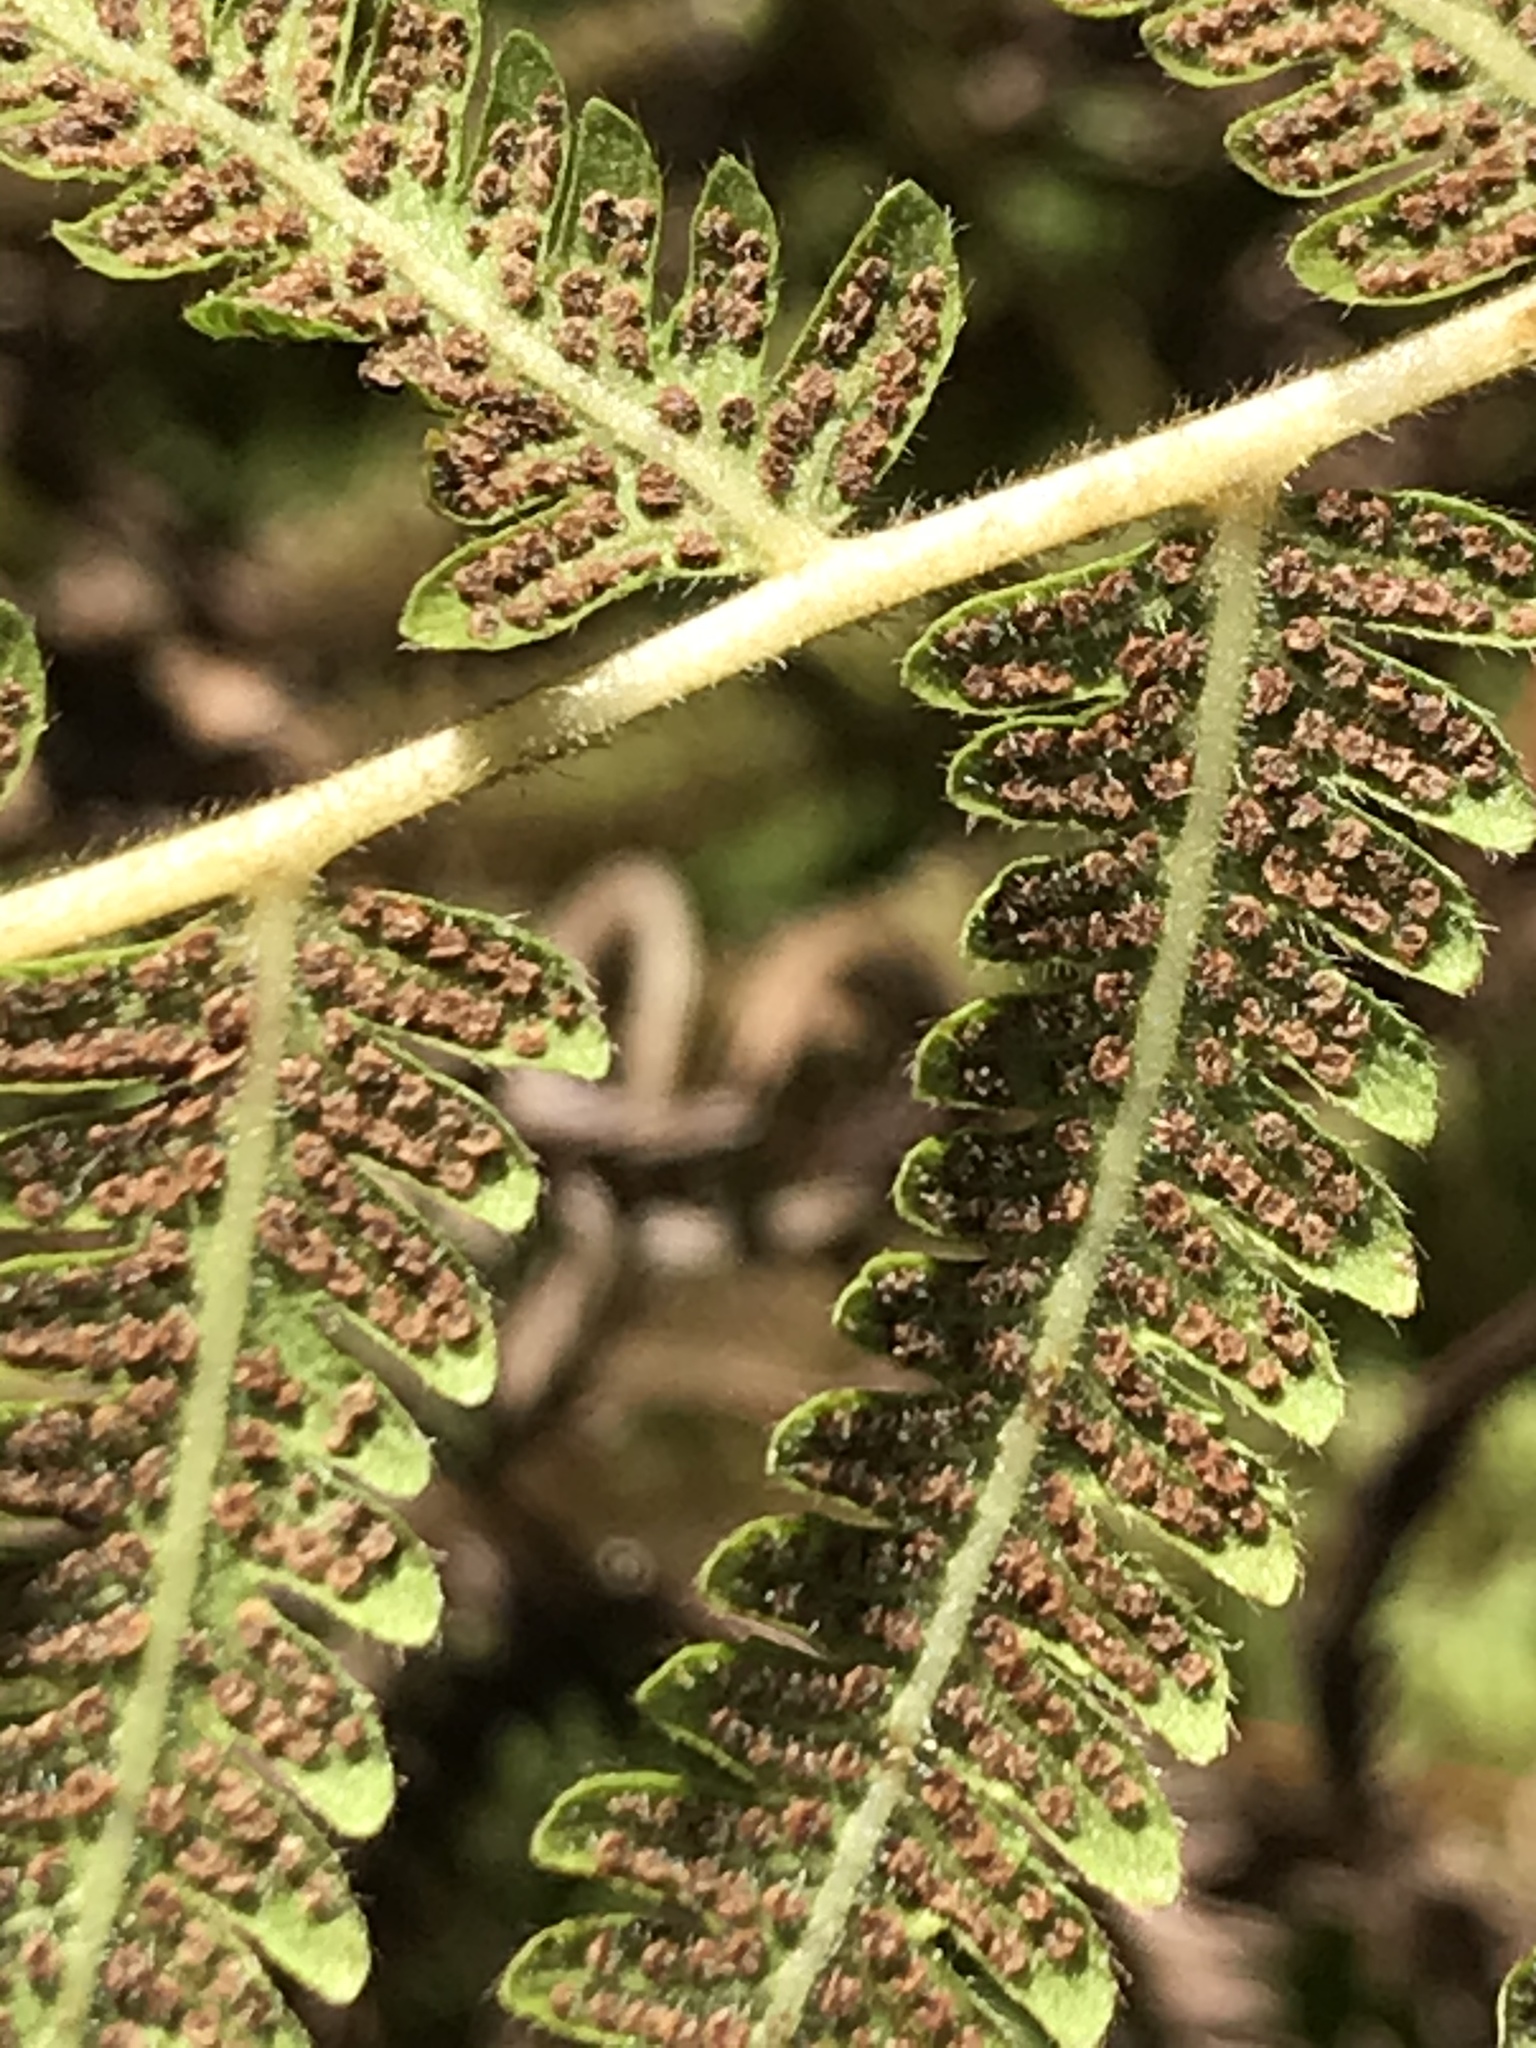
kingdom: Plantae
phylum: Tracheophyta
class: Polypodiopsida
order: Polypodiales
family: Thelypteridaceae
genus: Pelazoneuron
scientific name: Pelazoneuron kunthii
